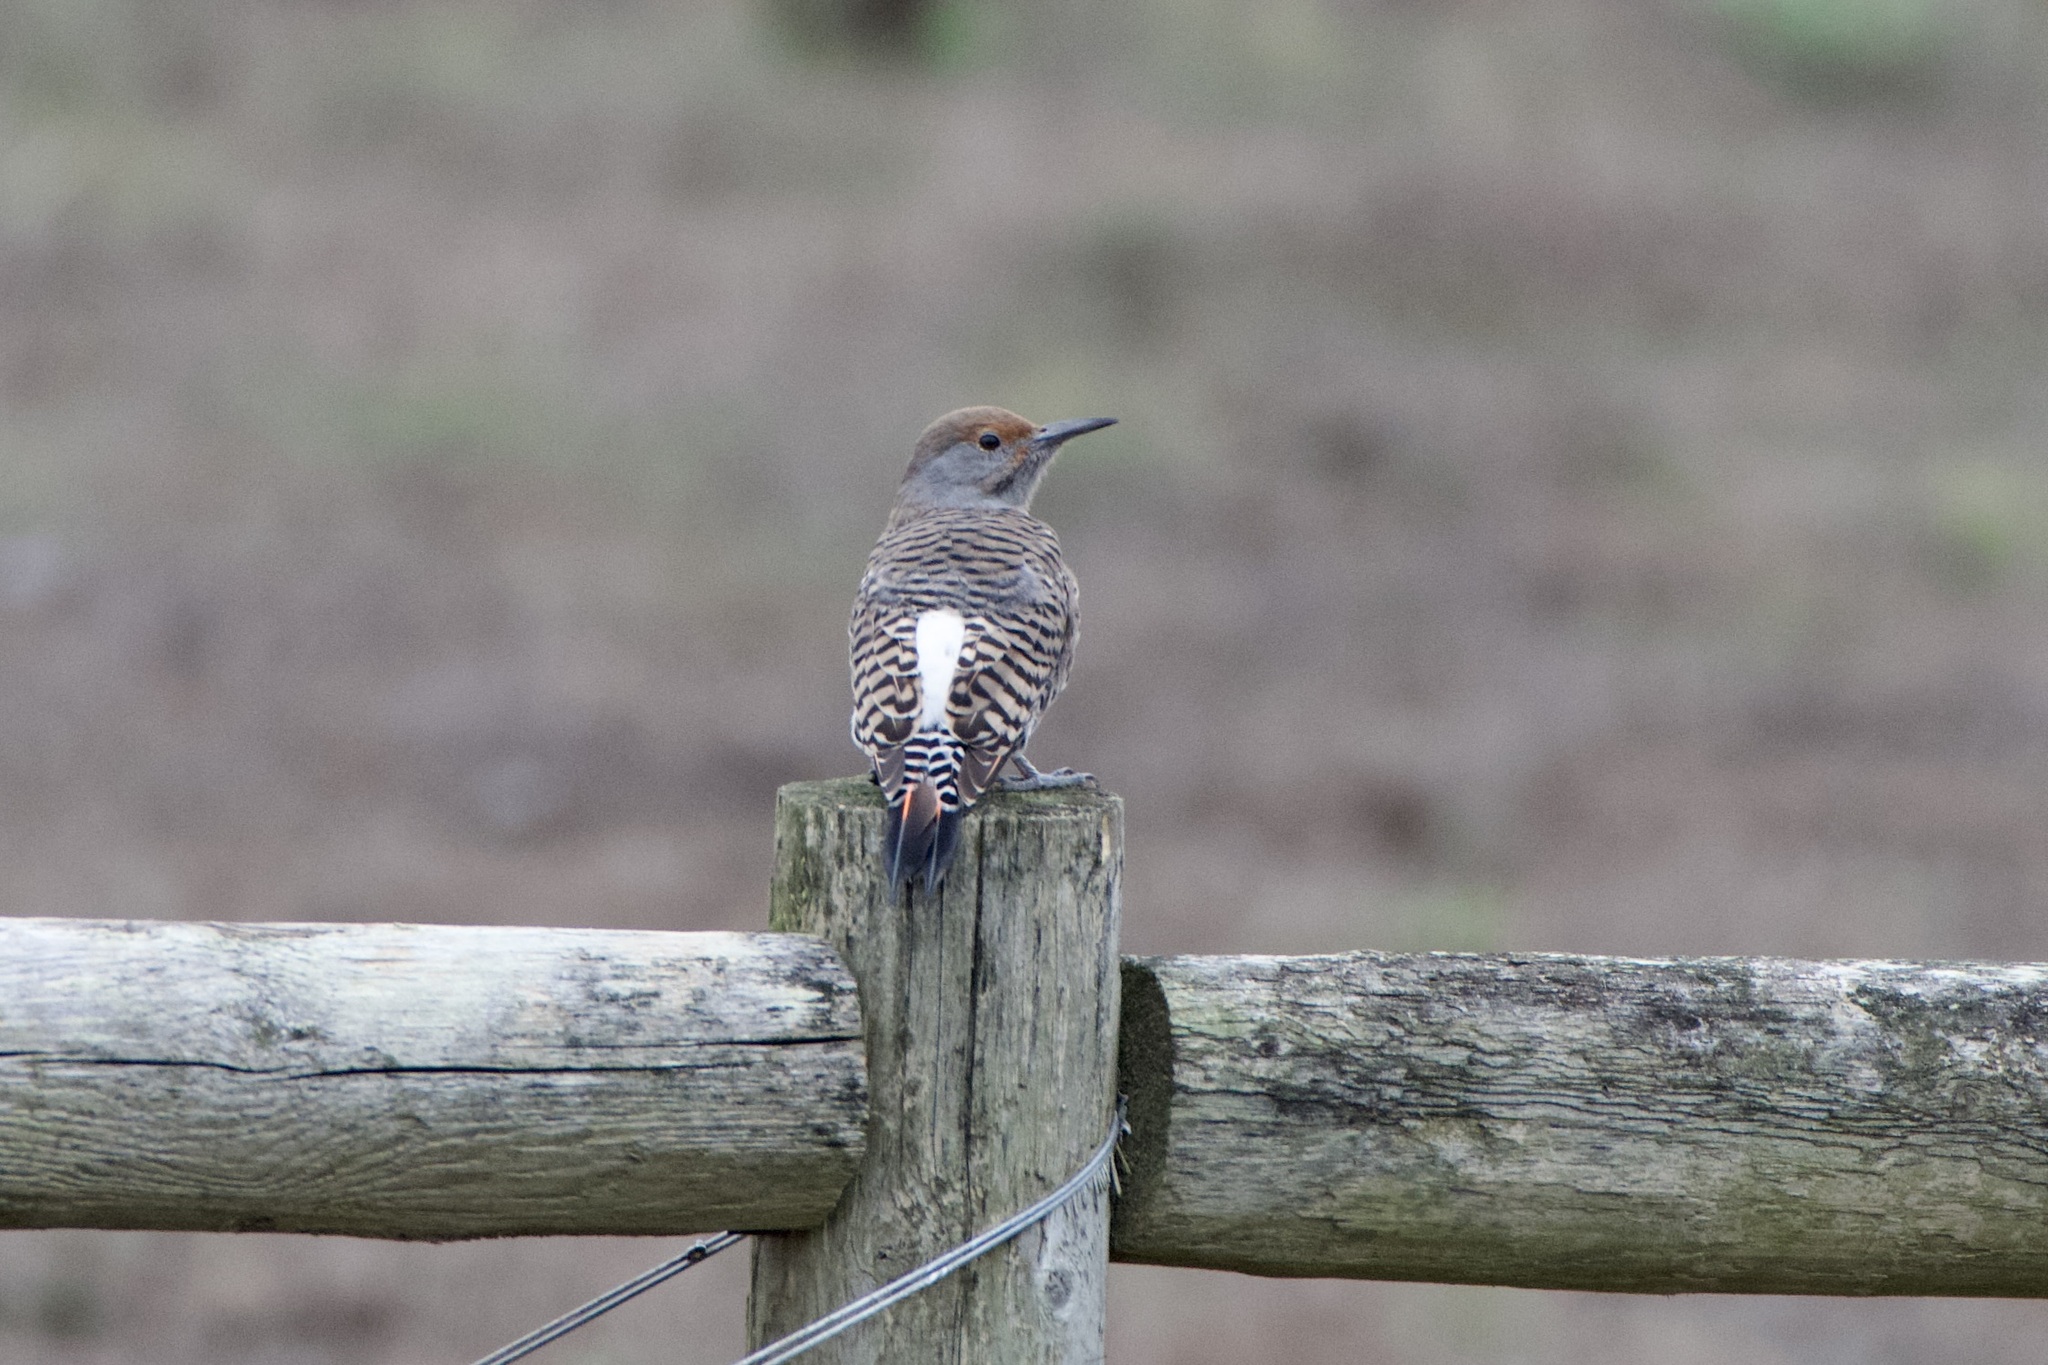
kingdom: Animalia
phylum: Chordata
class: Aves
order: Piciformes
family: Picidae
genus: Colaptes
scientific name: Colaptes auratus
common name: Northern flicker
